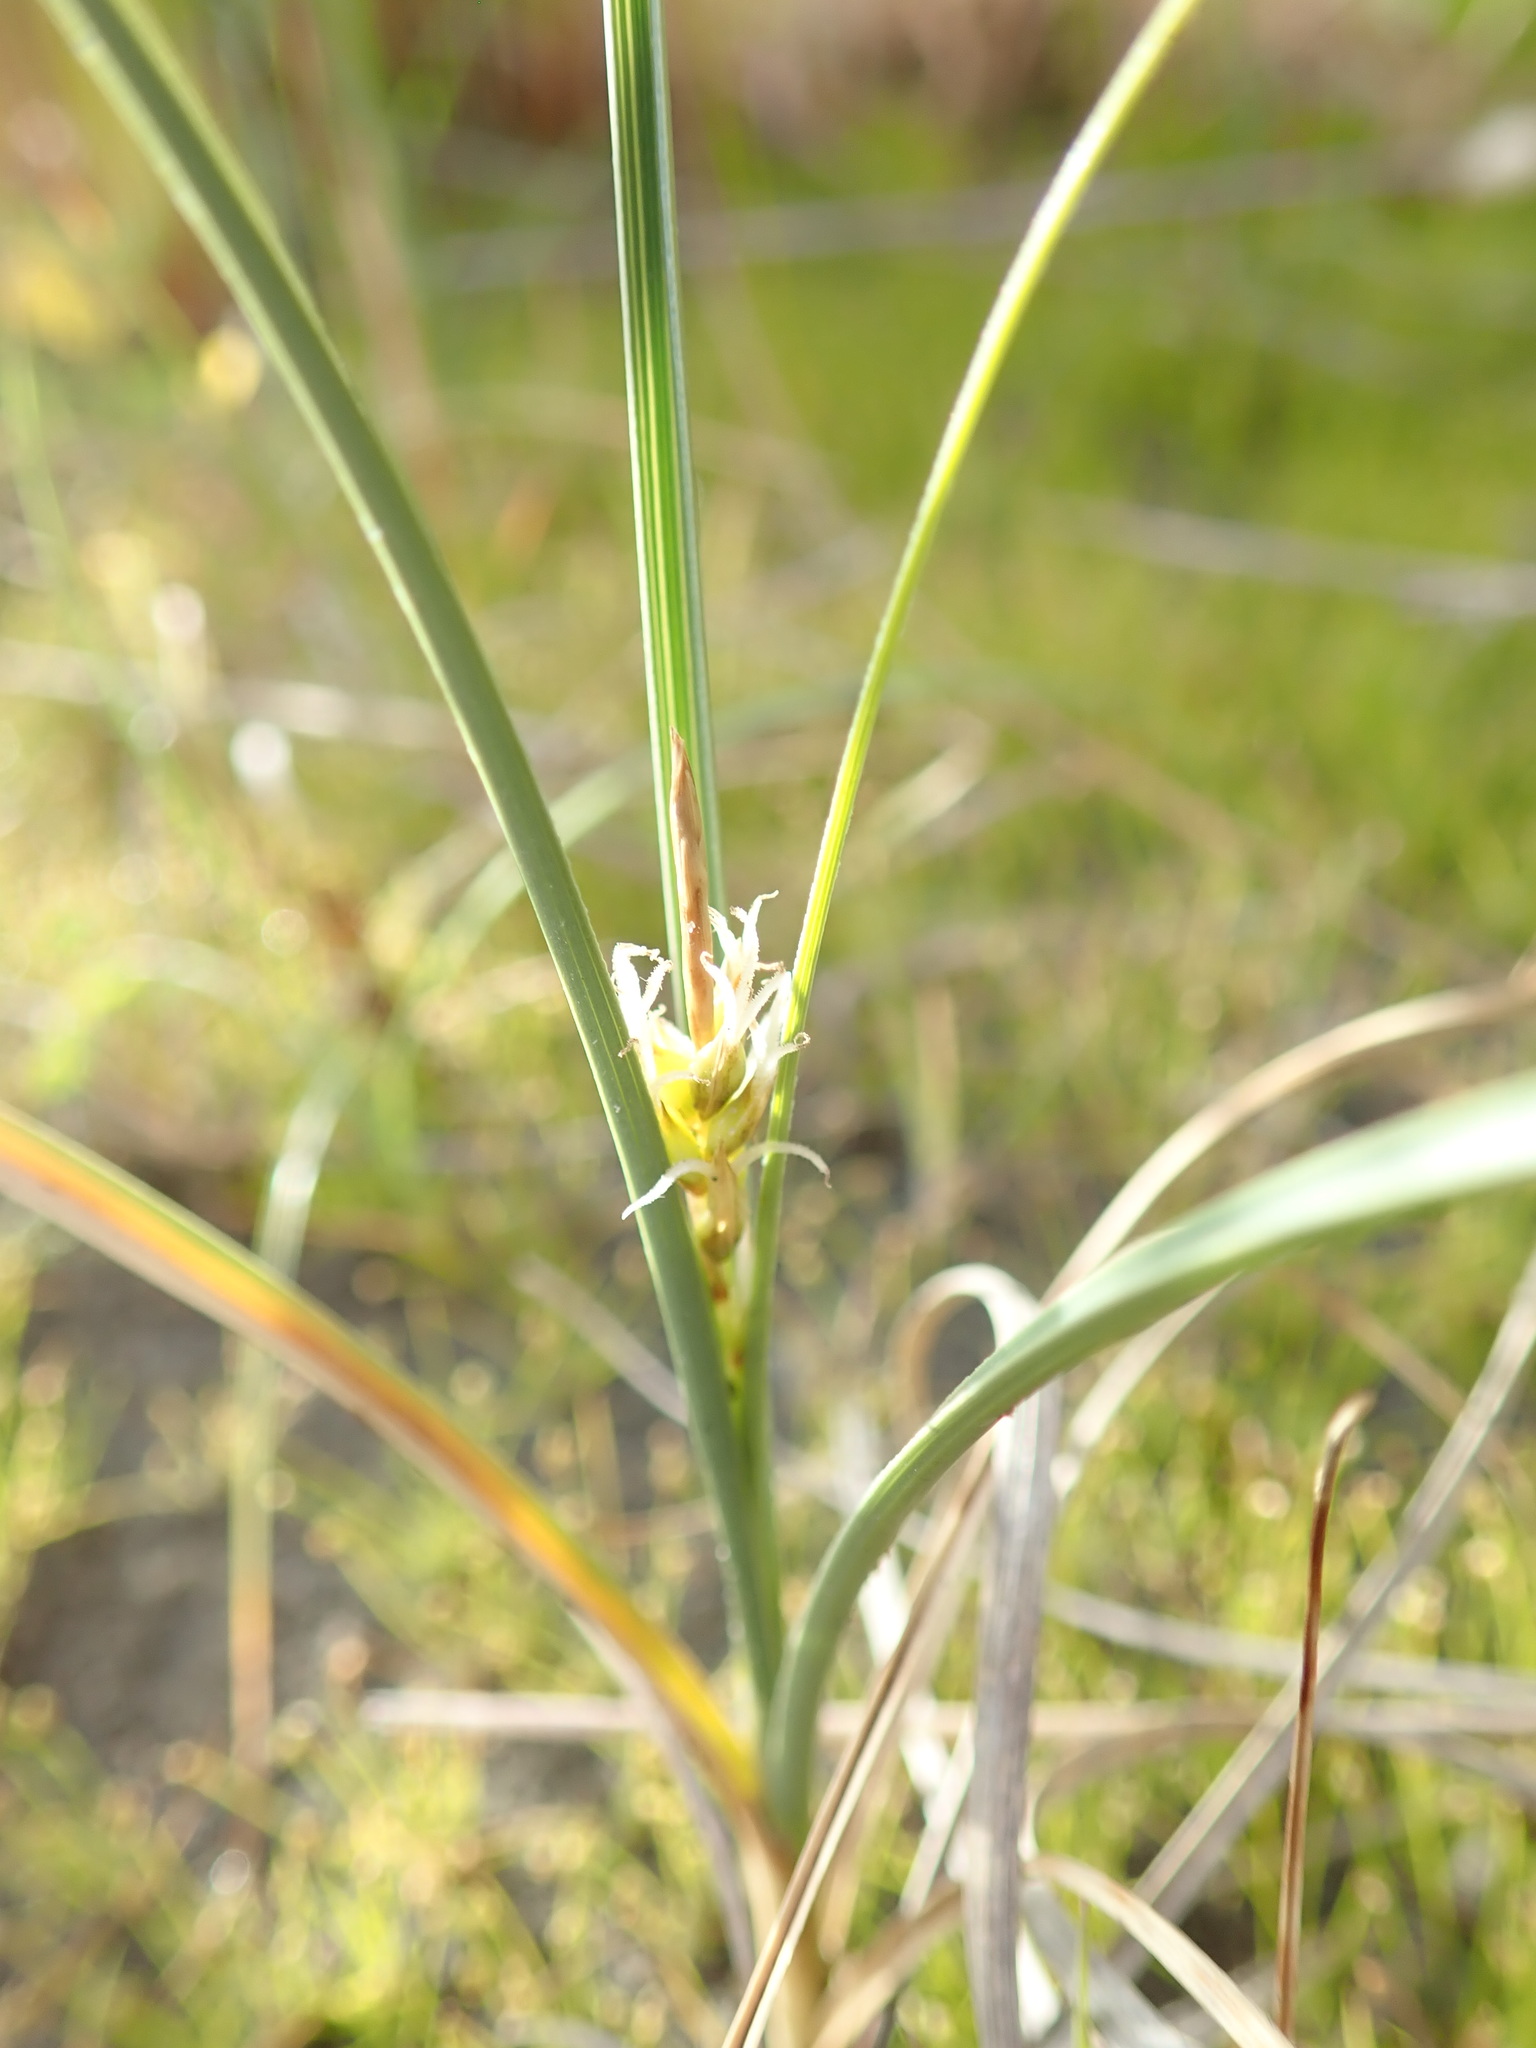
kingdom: Plantae
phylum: Tracheophyta
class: Liliopsida
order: Poales
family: Cyperaceae
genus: Carex
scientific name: Carex pumila
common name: Dwarf sedge
